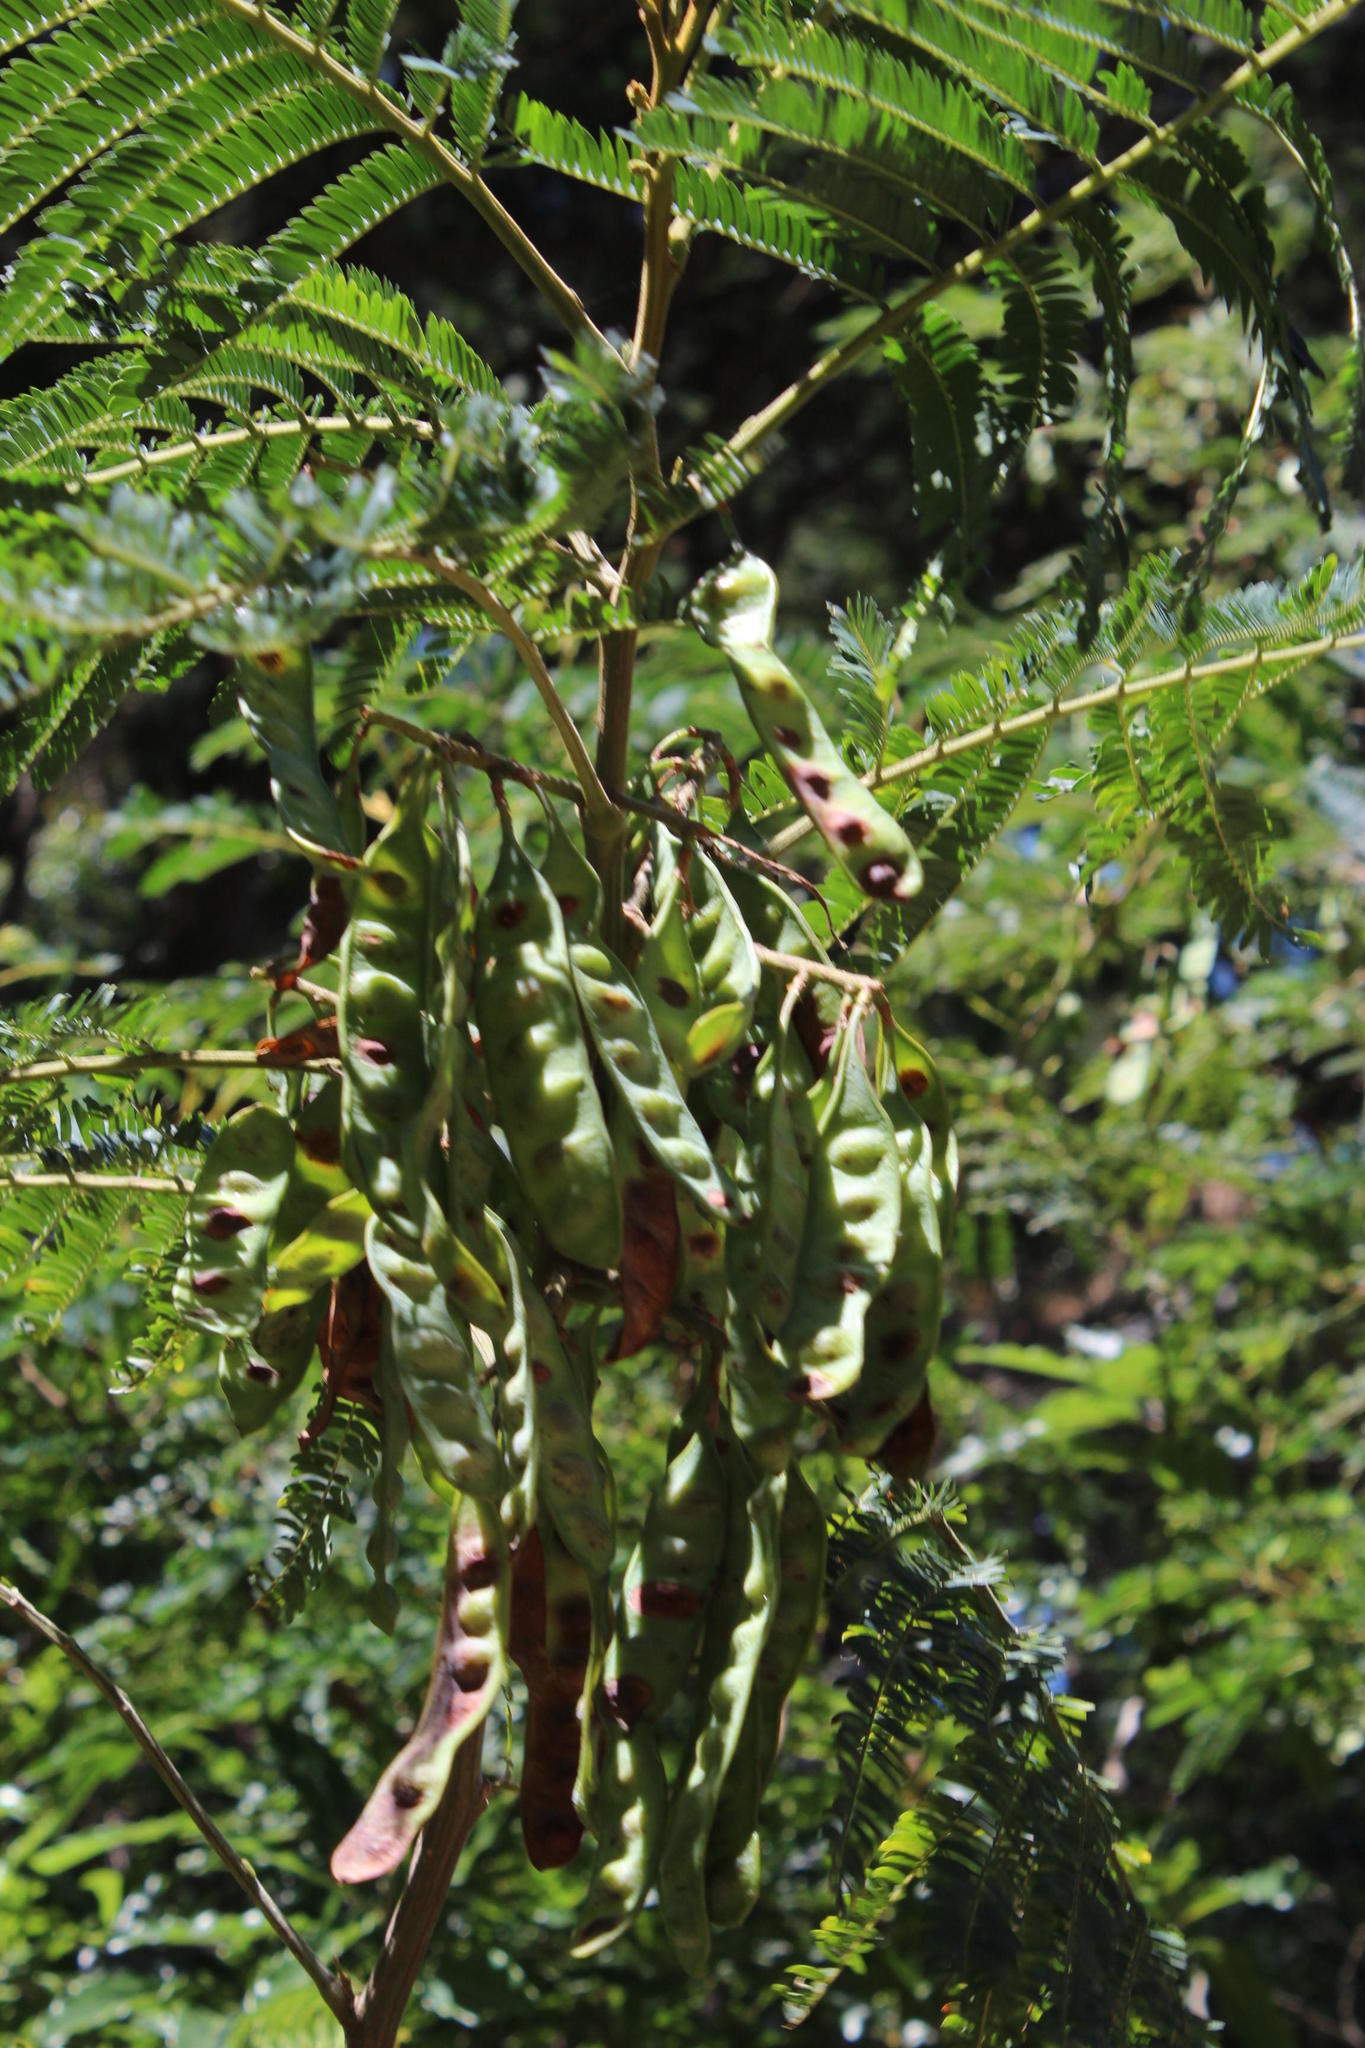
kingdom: Plantae
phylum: Tracheophyta
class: Magnoliopsida
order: Fabales
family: Fabaceae
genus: Paraserianthes
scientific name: Paraserianthes lophantha
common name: Plume albizia
